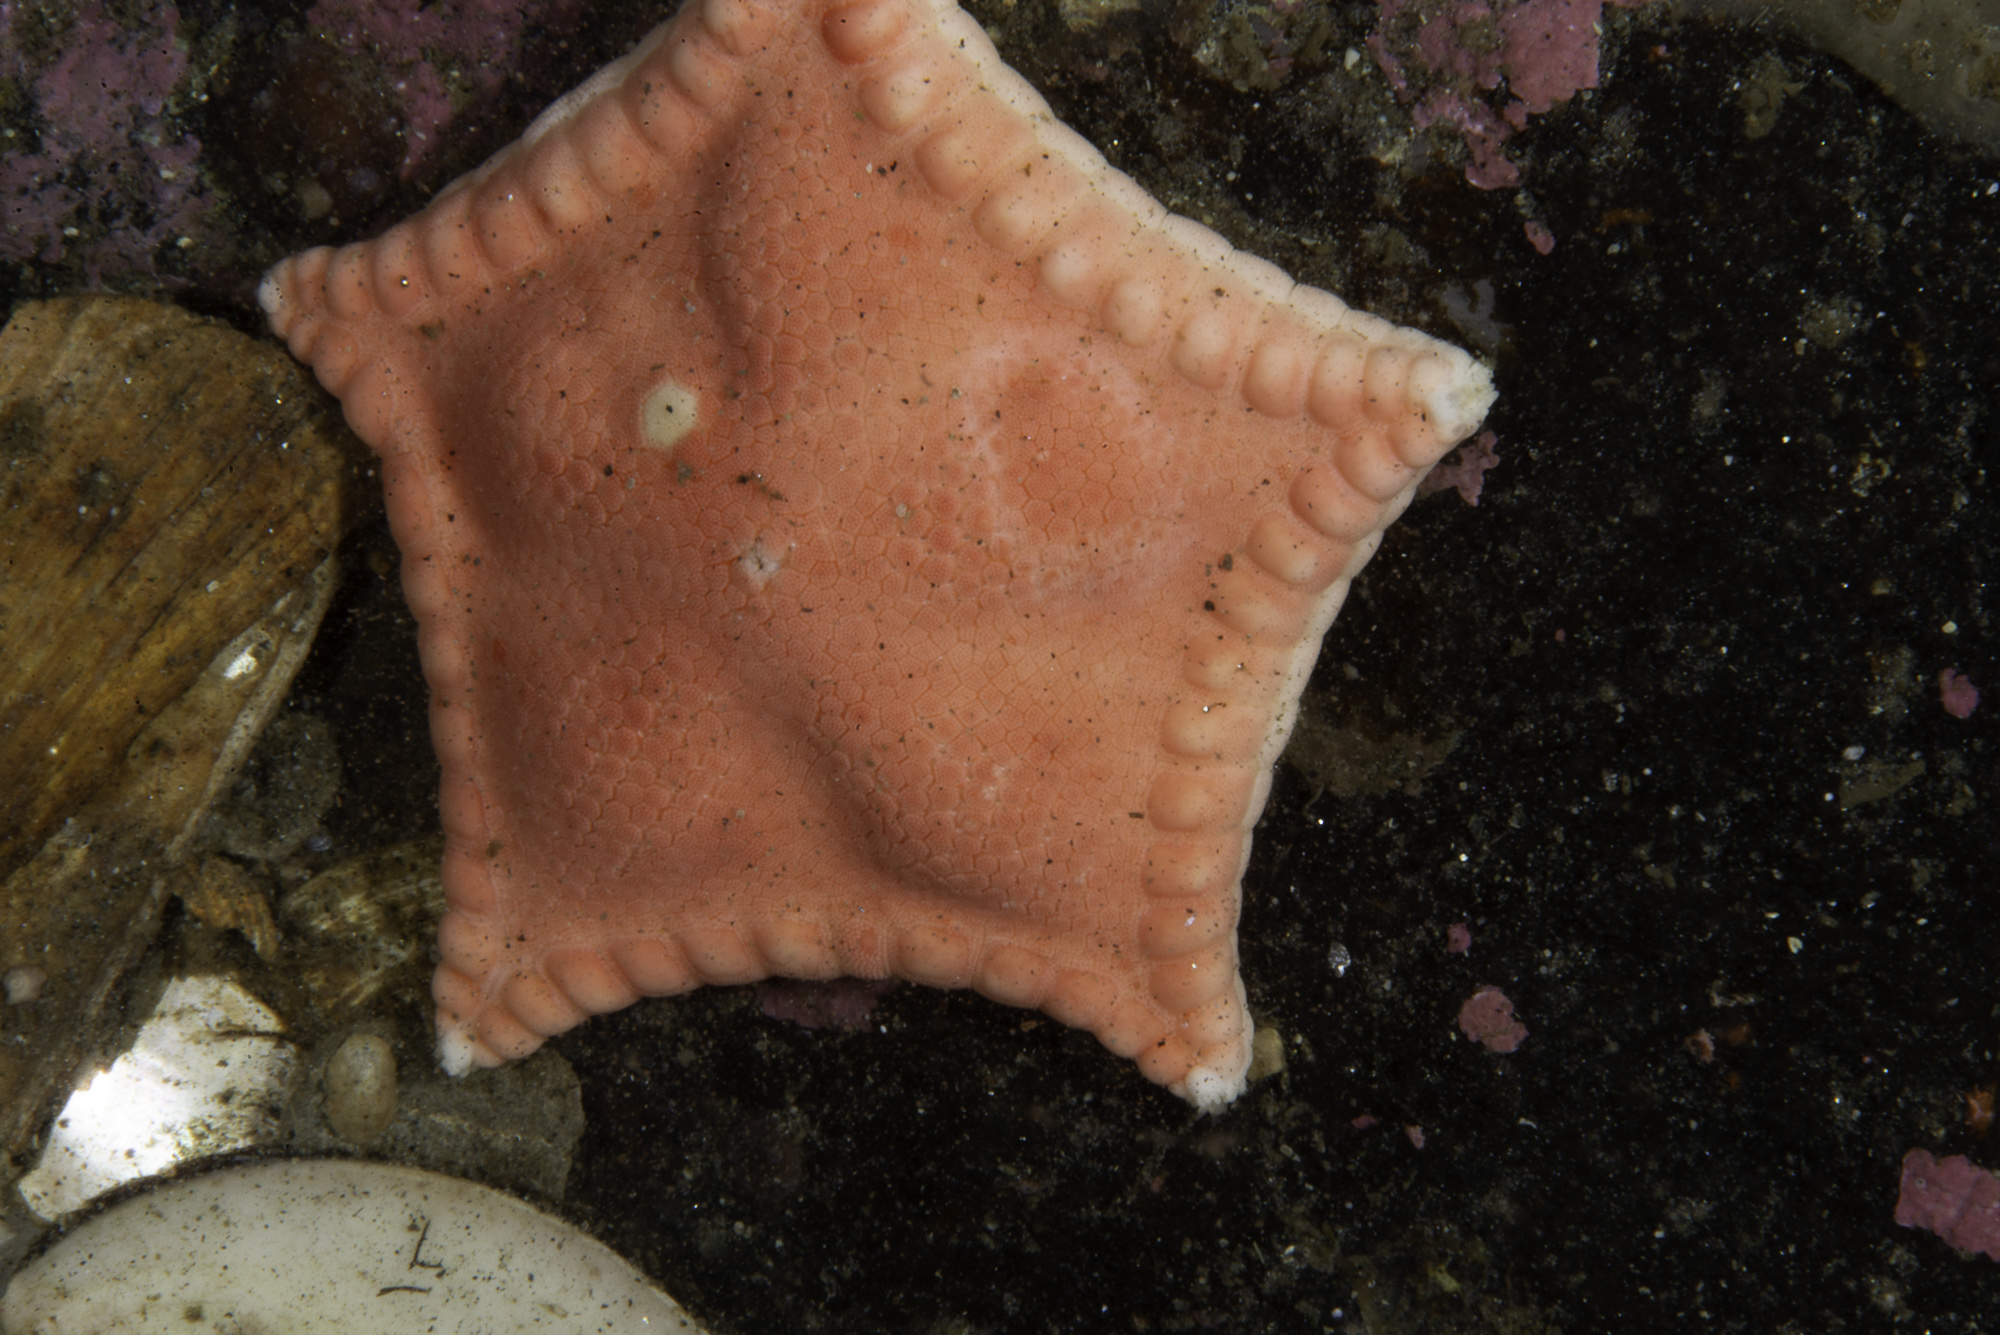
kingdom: Animalia
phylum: Echinodermata
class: Asteroidea
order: Valvatida
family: Goniasteridae
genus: Ceramaster
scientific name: Ceramaster granularis
